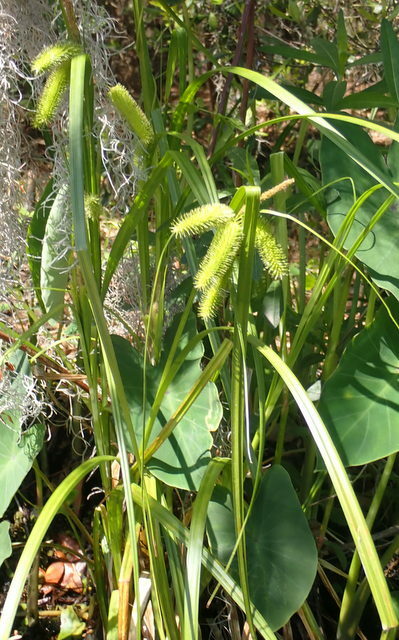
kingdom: Plantae
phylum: Tracheophyta
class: Liliopsida
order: Poales
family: Cyperaceae
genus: Carex
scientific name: Carex comosa
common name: Bristly sedge
